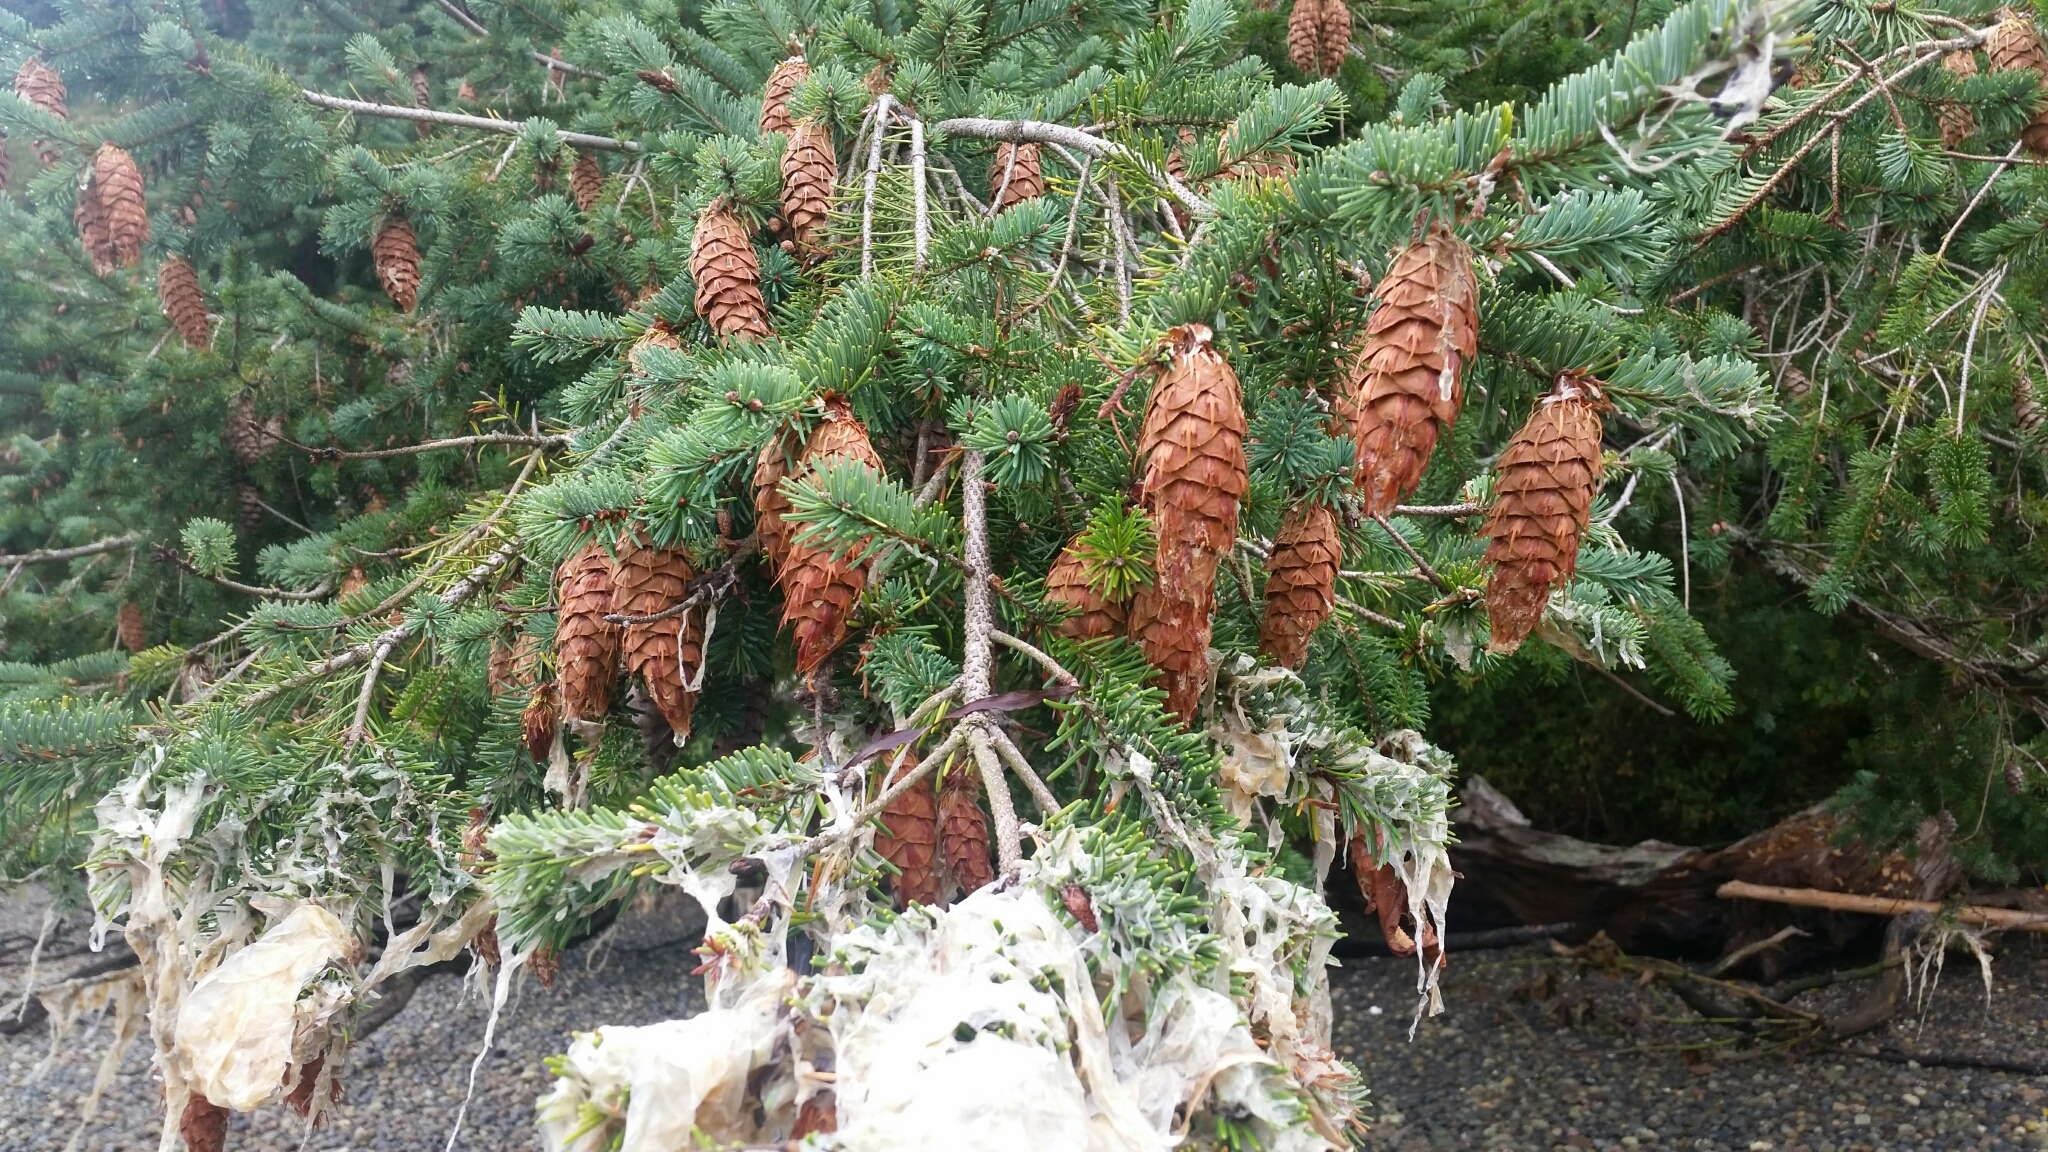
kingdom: Plantae
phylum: Tracheophyta
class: Pinopsida
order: Pinales
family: Pinaceae
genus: Pseudotsuga
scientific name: Pseudotsuga menziesii
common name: Douglas fir
